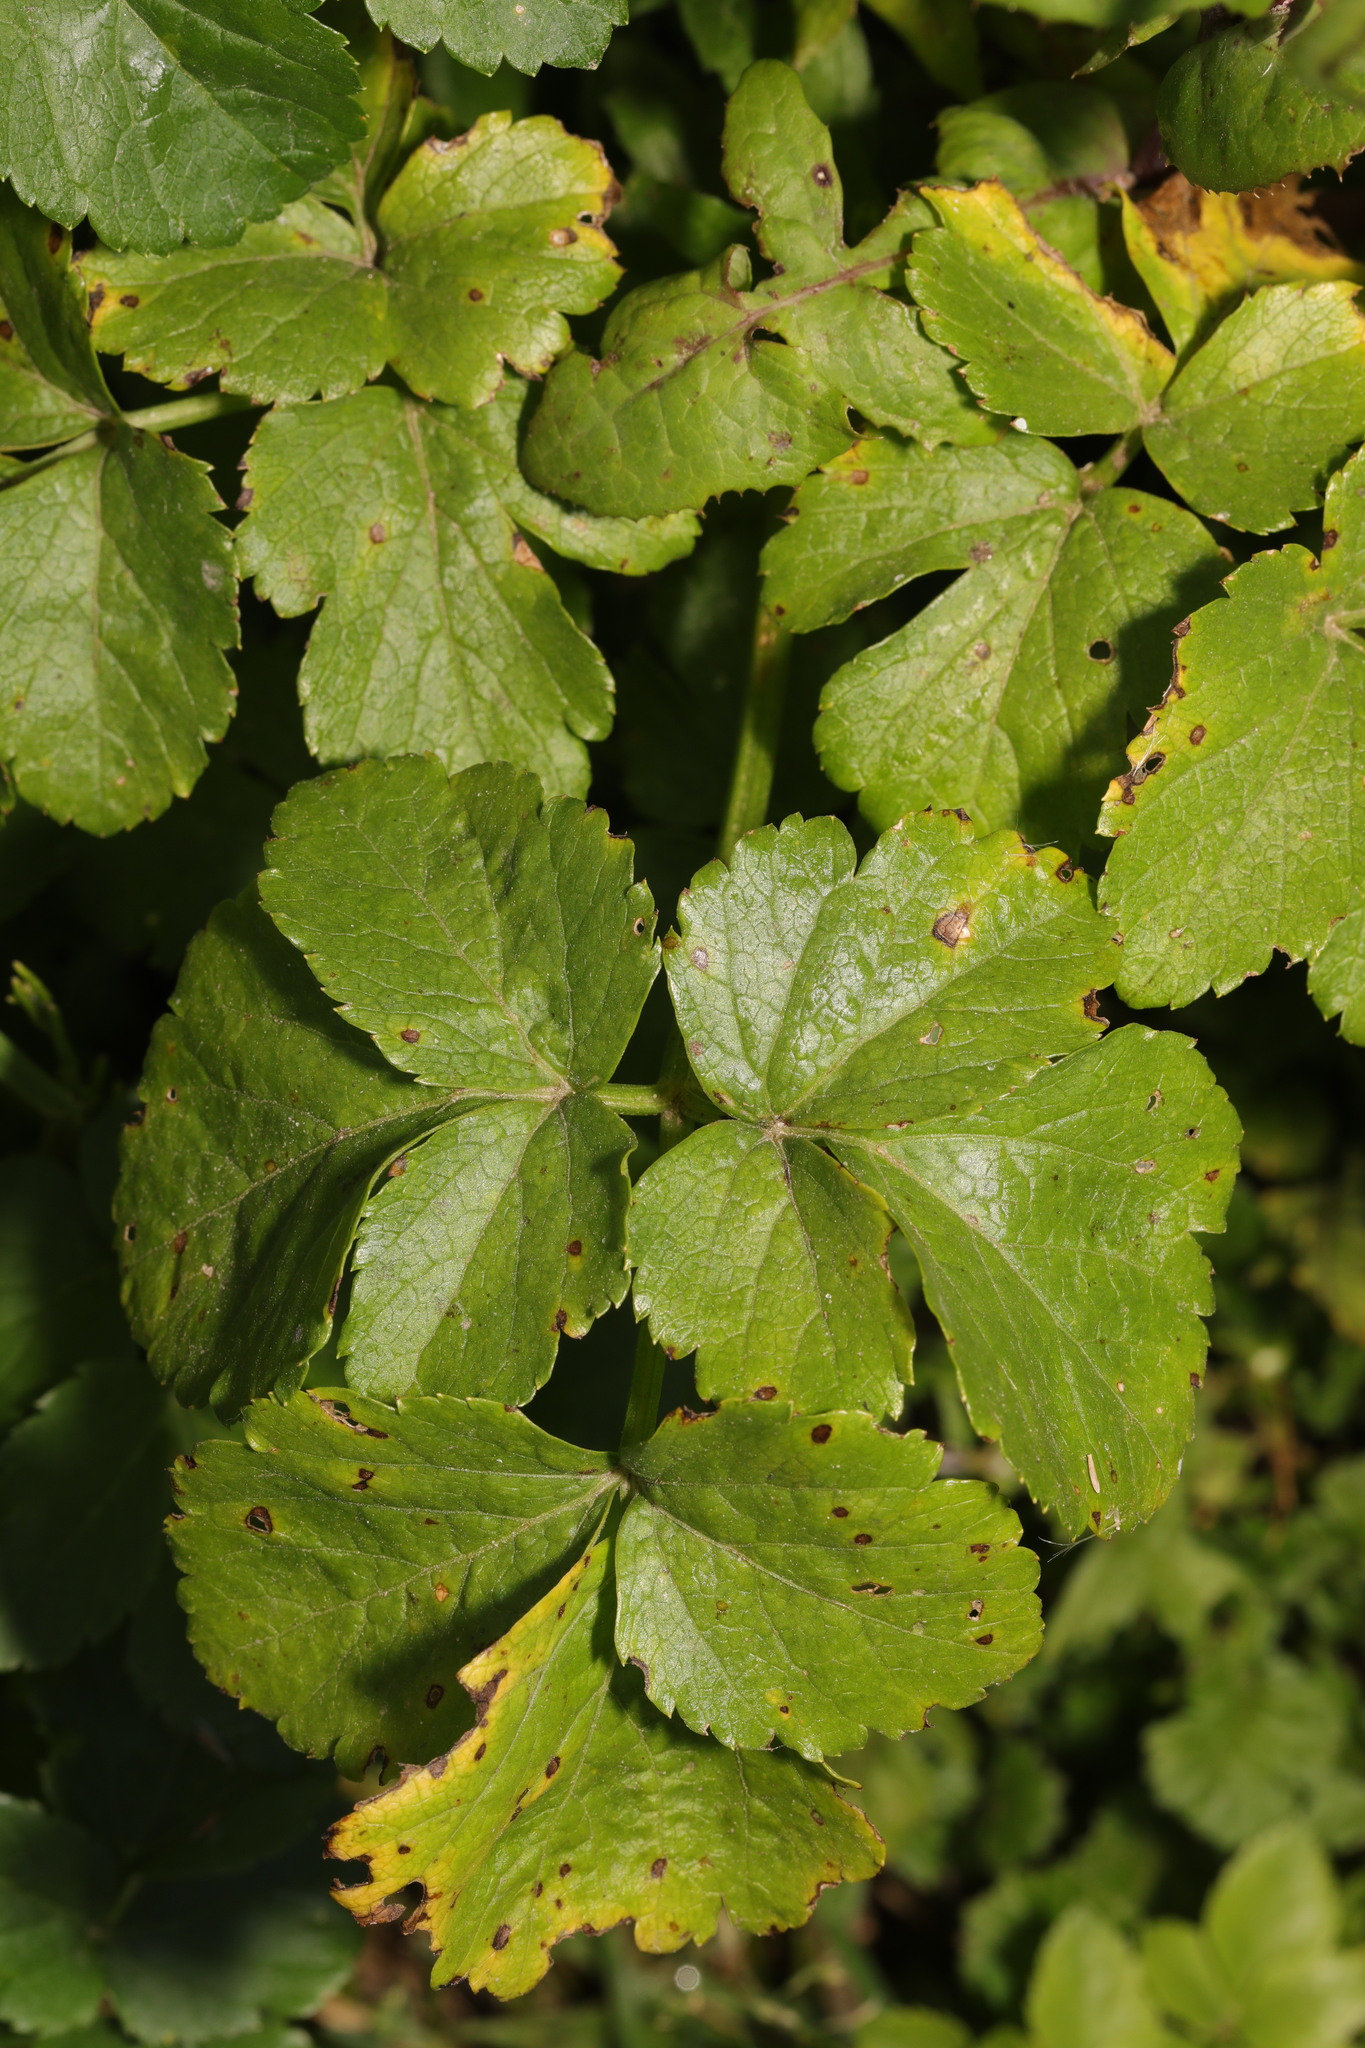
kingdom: Plantae
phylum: Tracheophyta
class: Magnoliopsida
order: Apiales
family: Apiaceae
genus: Smyrnium
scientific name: Smyrnium olusatrum
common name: Alexanders
